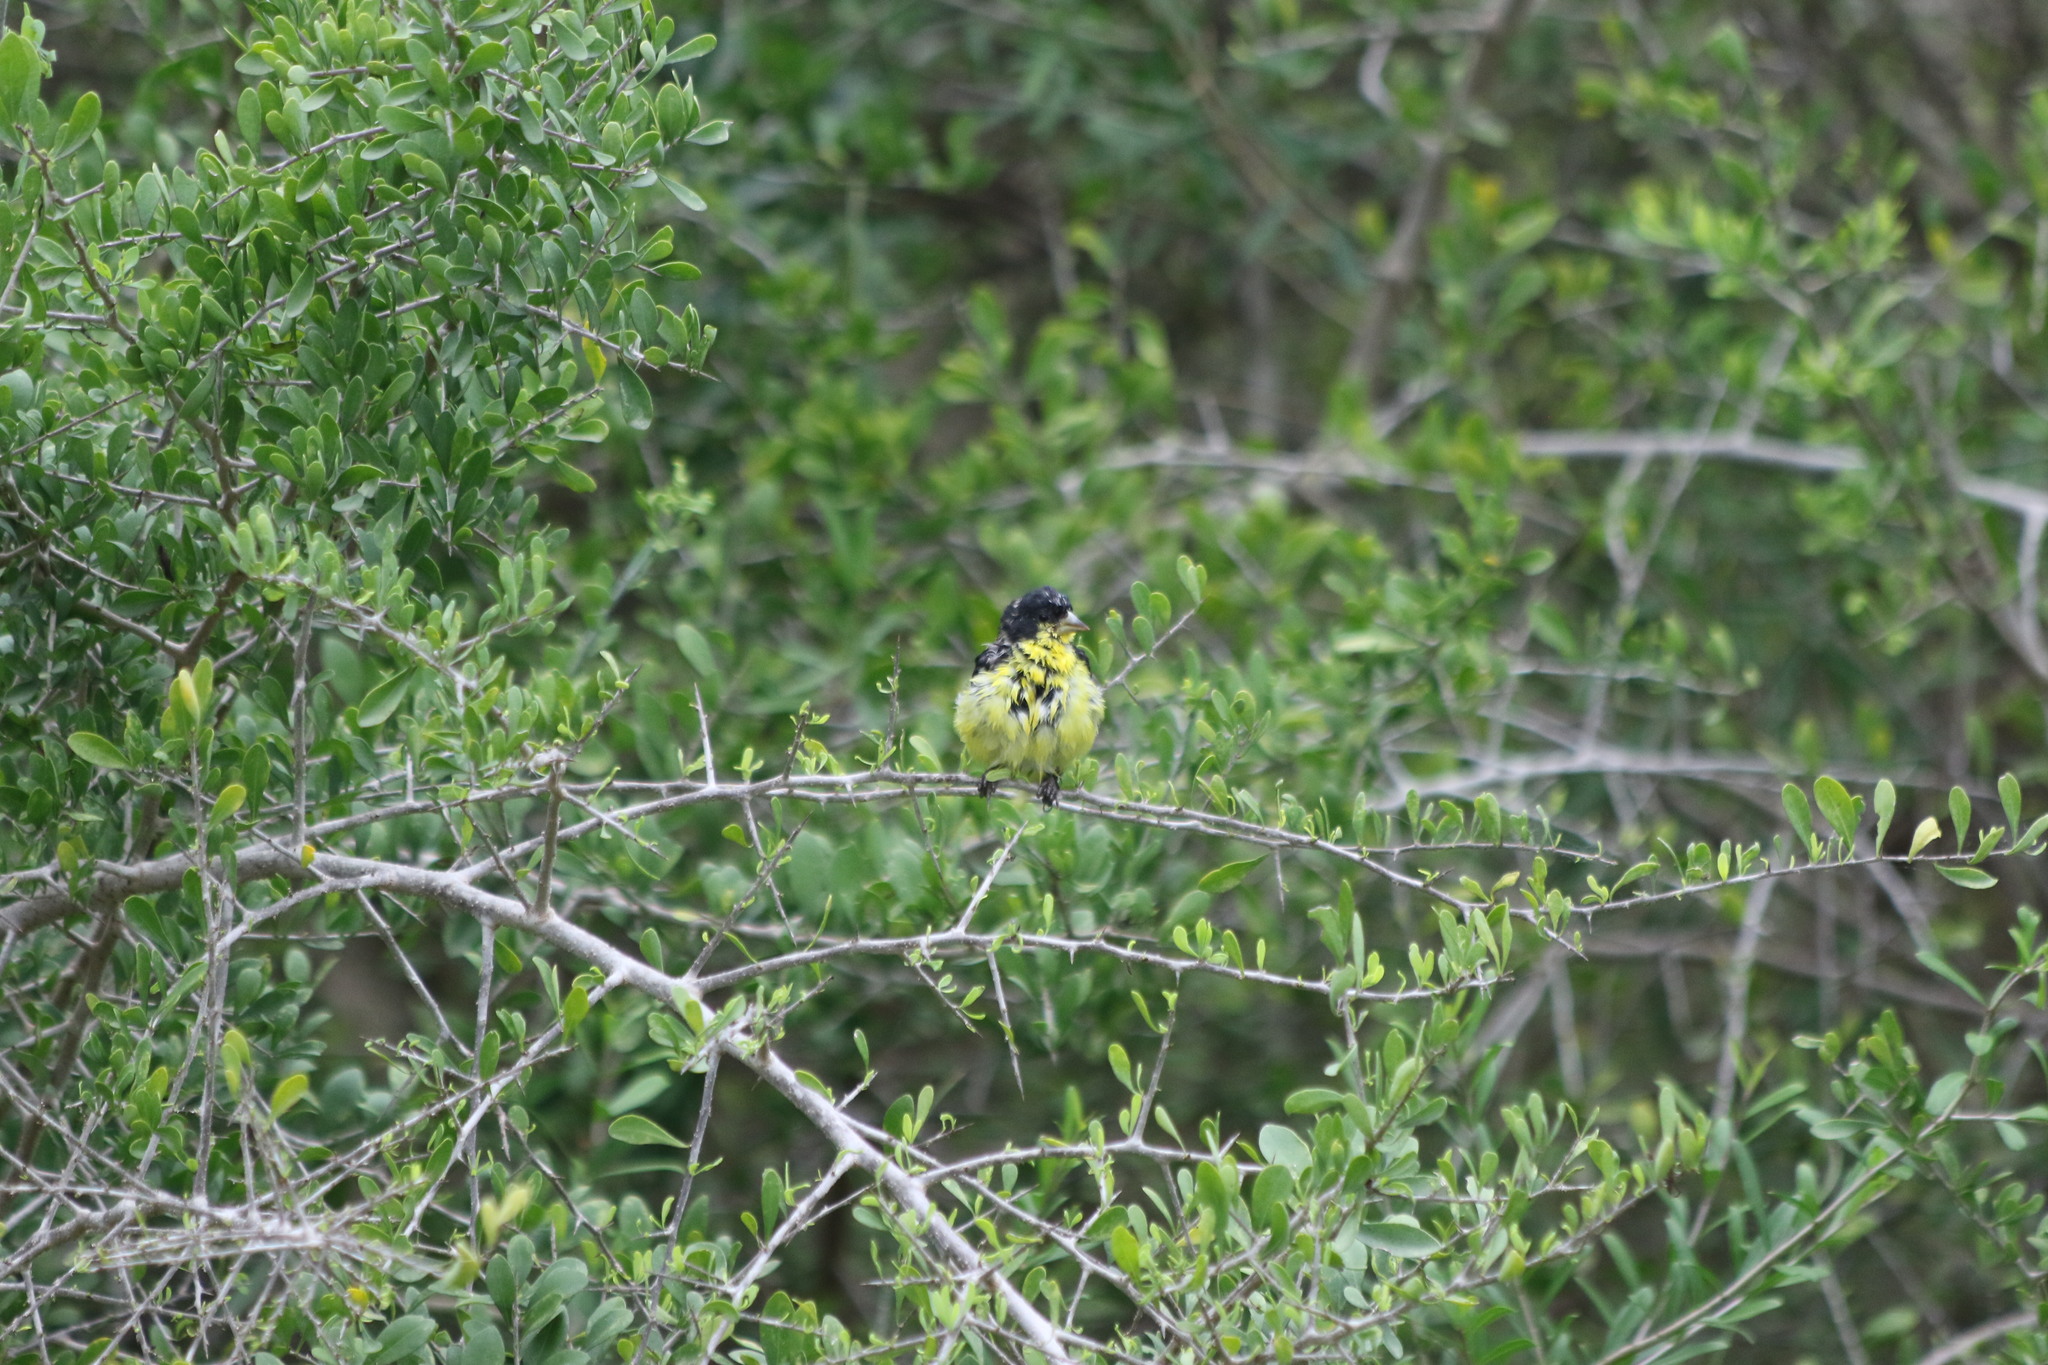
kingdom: Animalia
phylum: Chordata
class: Aves
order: Passeriformes
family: Fringillidae
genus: Spinus
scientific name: Spinus psaltria
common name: Lesser goldfinch
